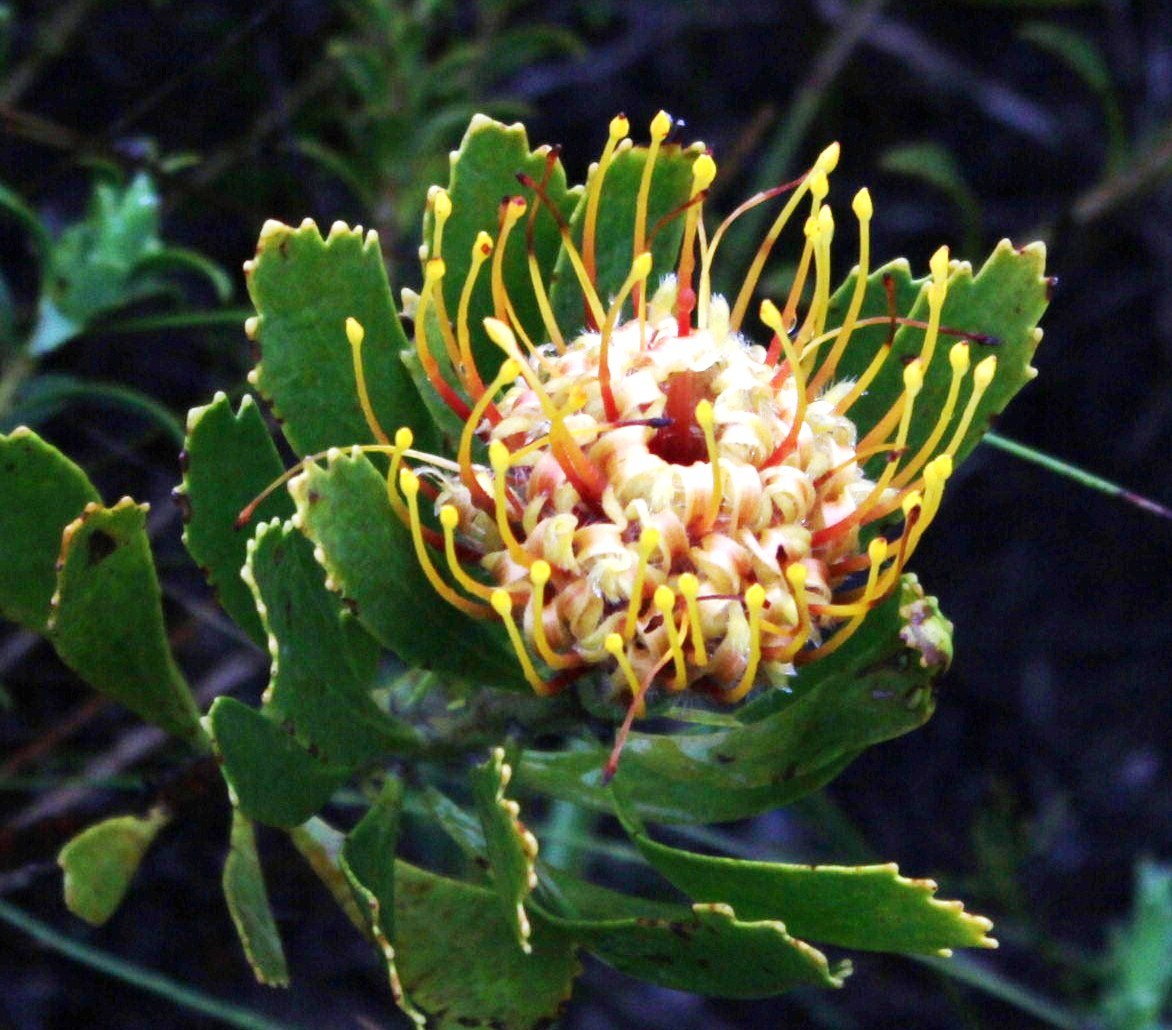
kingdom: Plantae
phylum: Tracheophyta
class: Magnoliopsida
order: Proteales
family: Proteaceae
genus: Leucospermum
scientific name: Leucospermum cuneiforme
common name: Common pincushion
